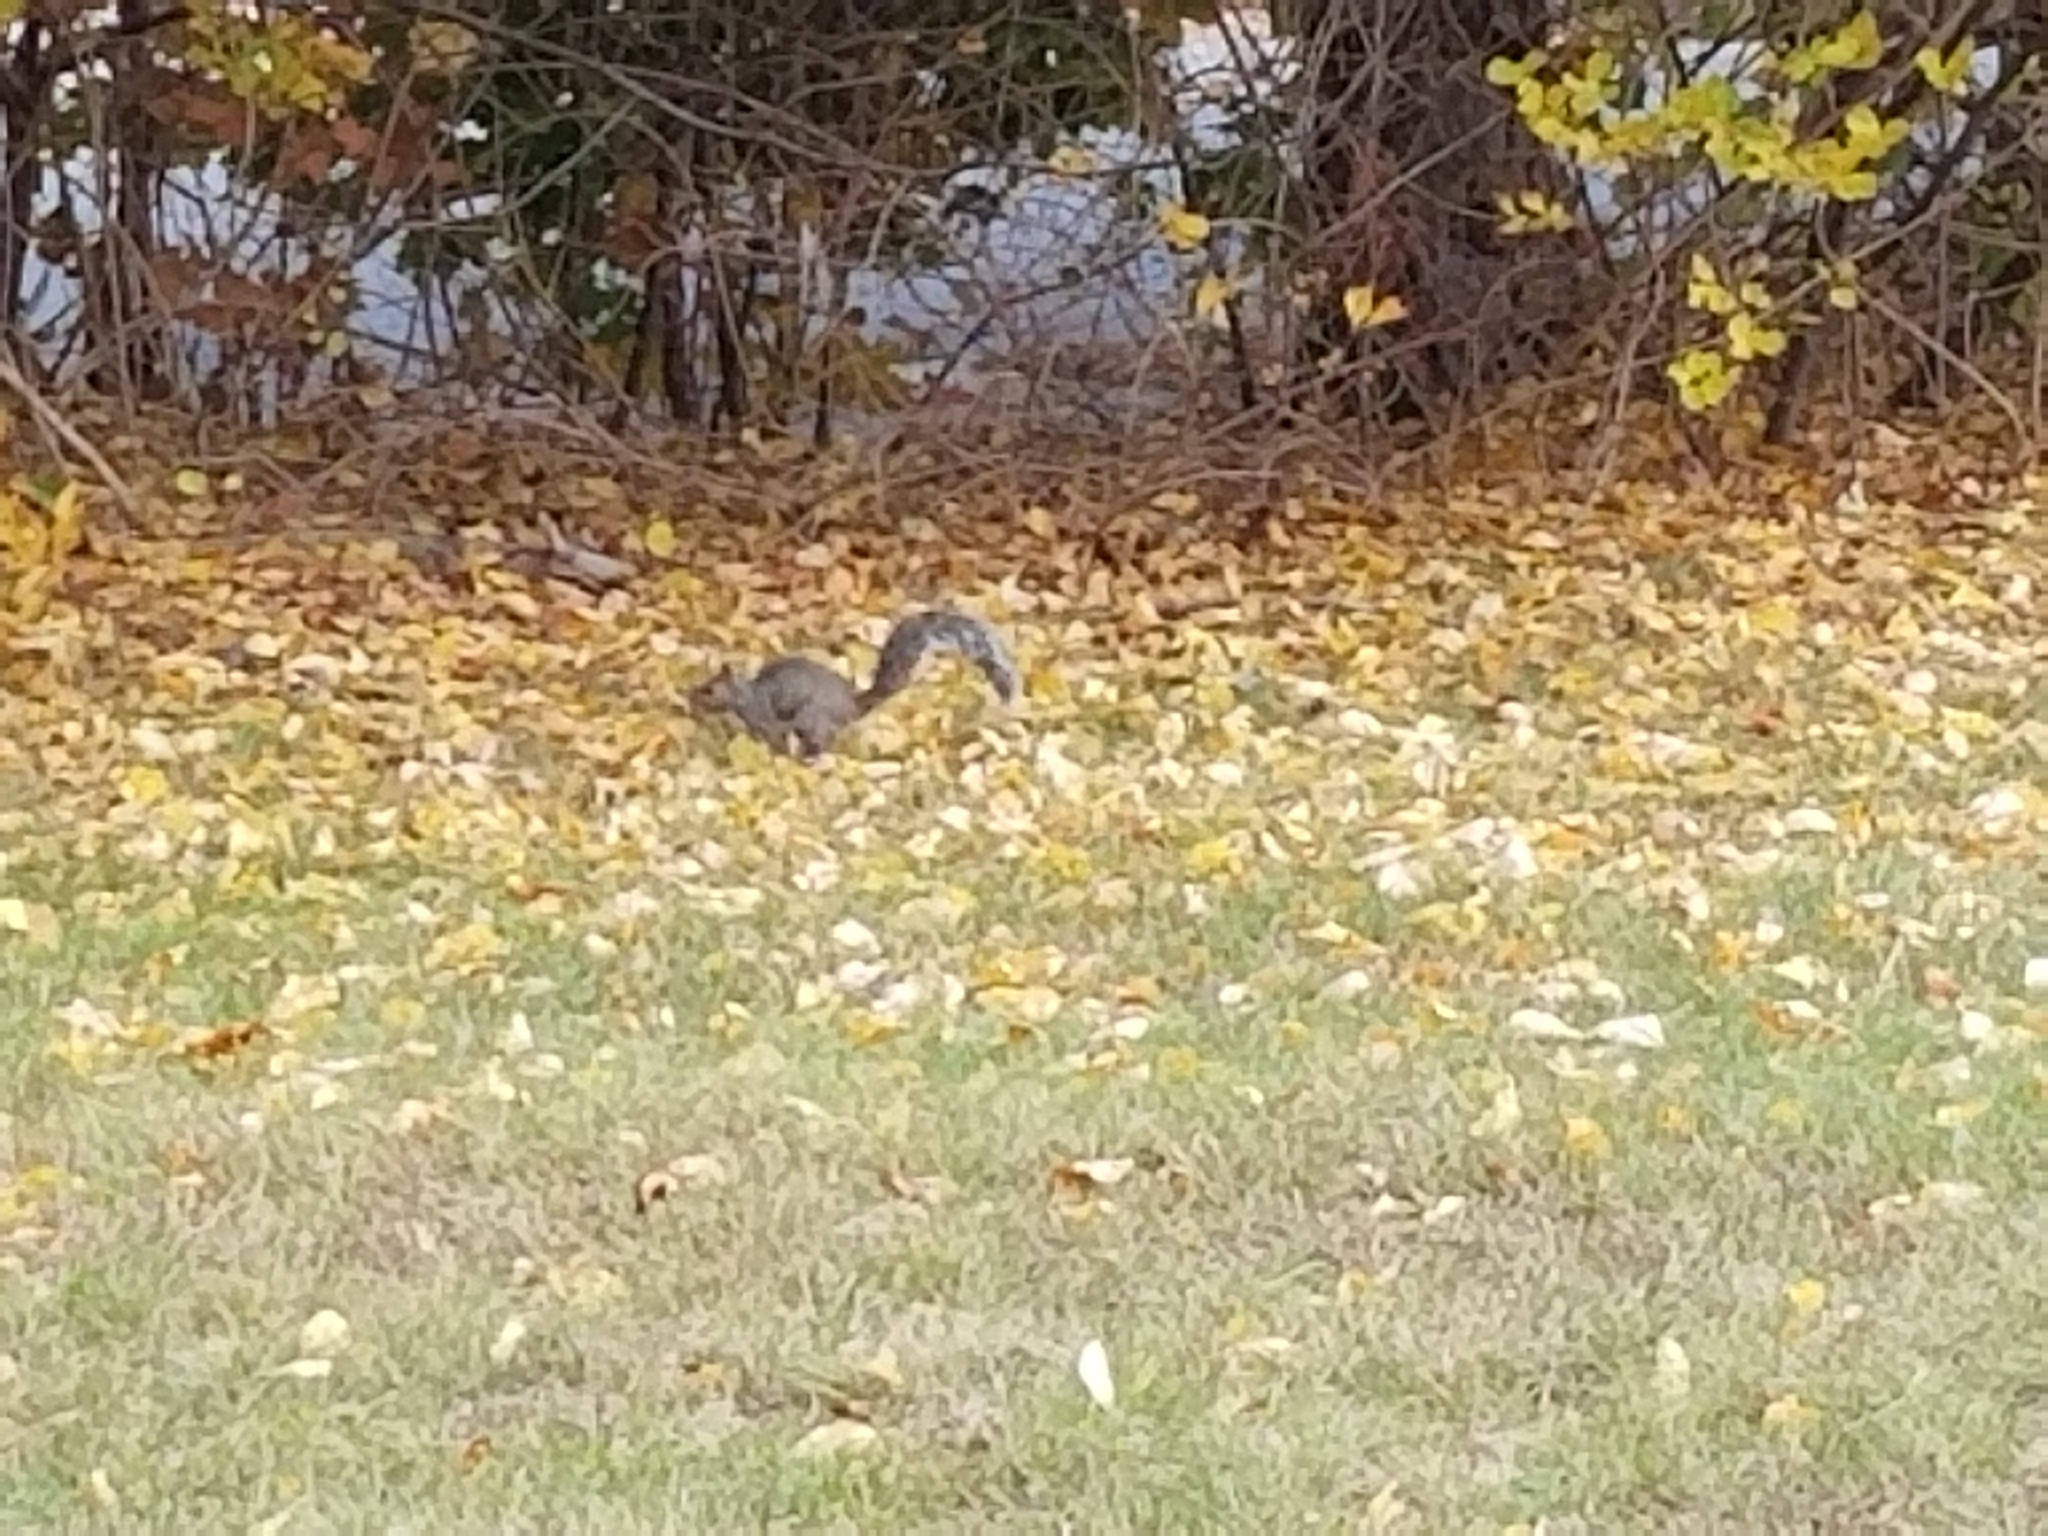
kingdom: Animalia
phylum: Chordata
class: Mammalia
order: Rodentia
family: Sciuridae
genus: Sciurus
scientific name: Sciurus carolinensis
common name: Eastern gray squirrel
